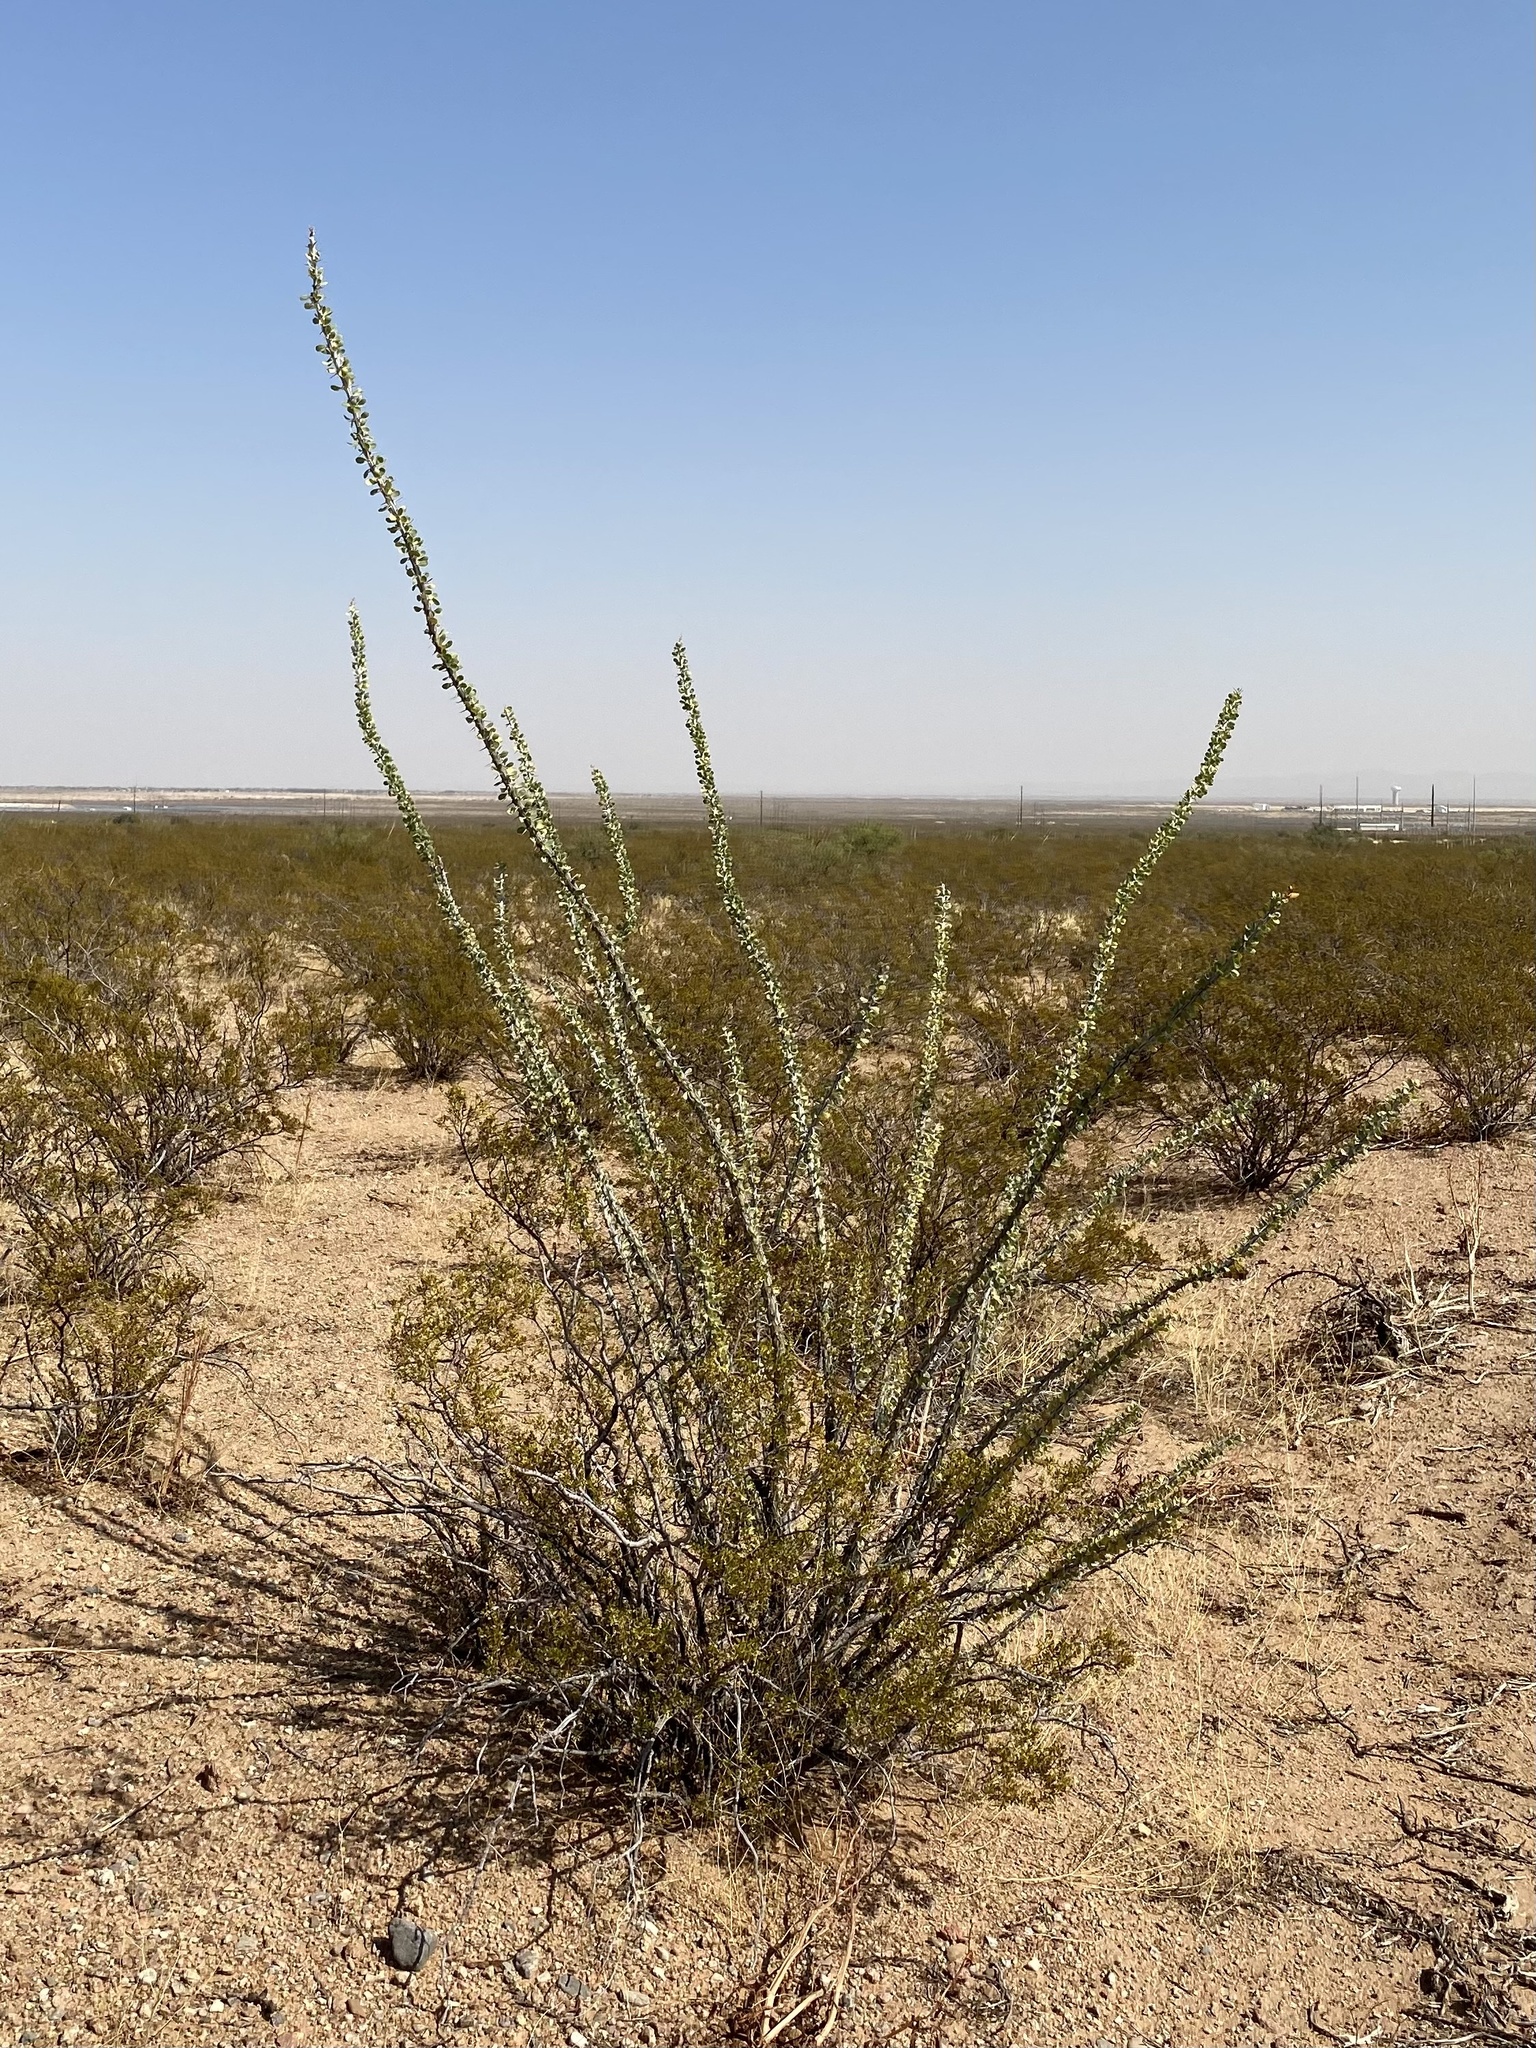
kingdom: Plantae
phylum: Tracheophyta
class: Magnoliopsida
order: Ericales
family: Fouquieriaceae
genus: Fouquieria
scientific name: Fouquieria splendens
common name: Vine-cactus
